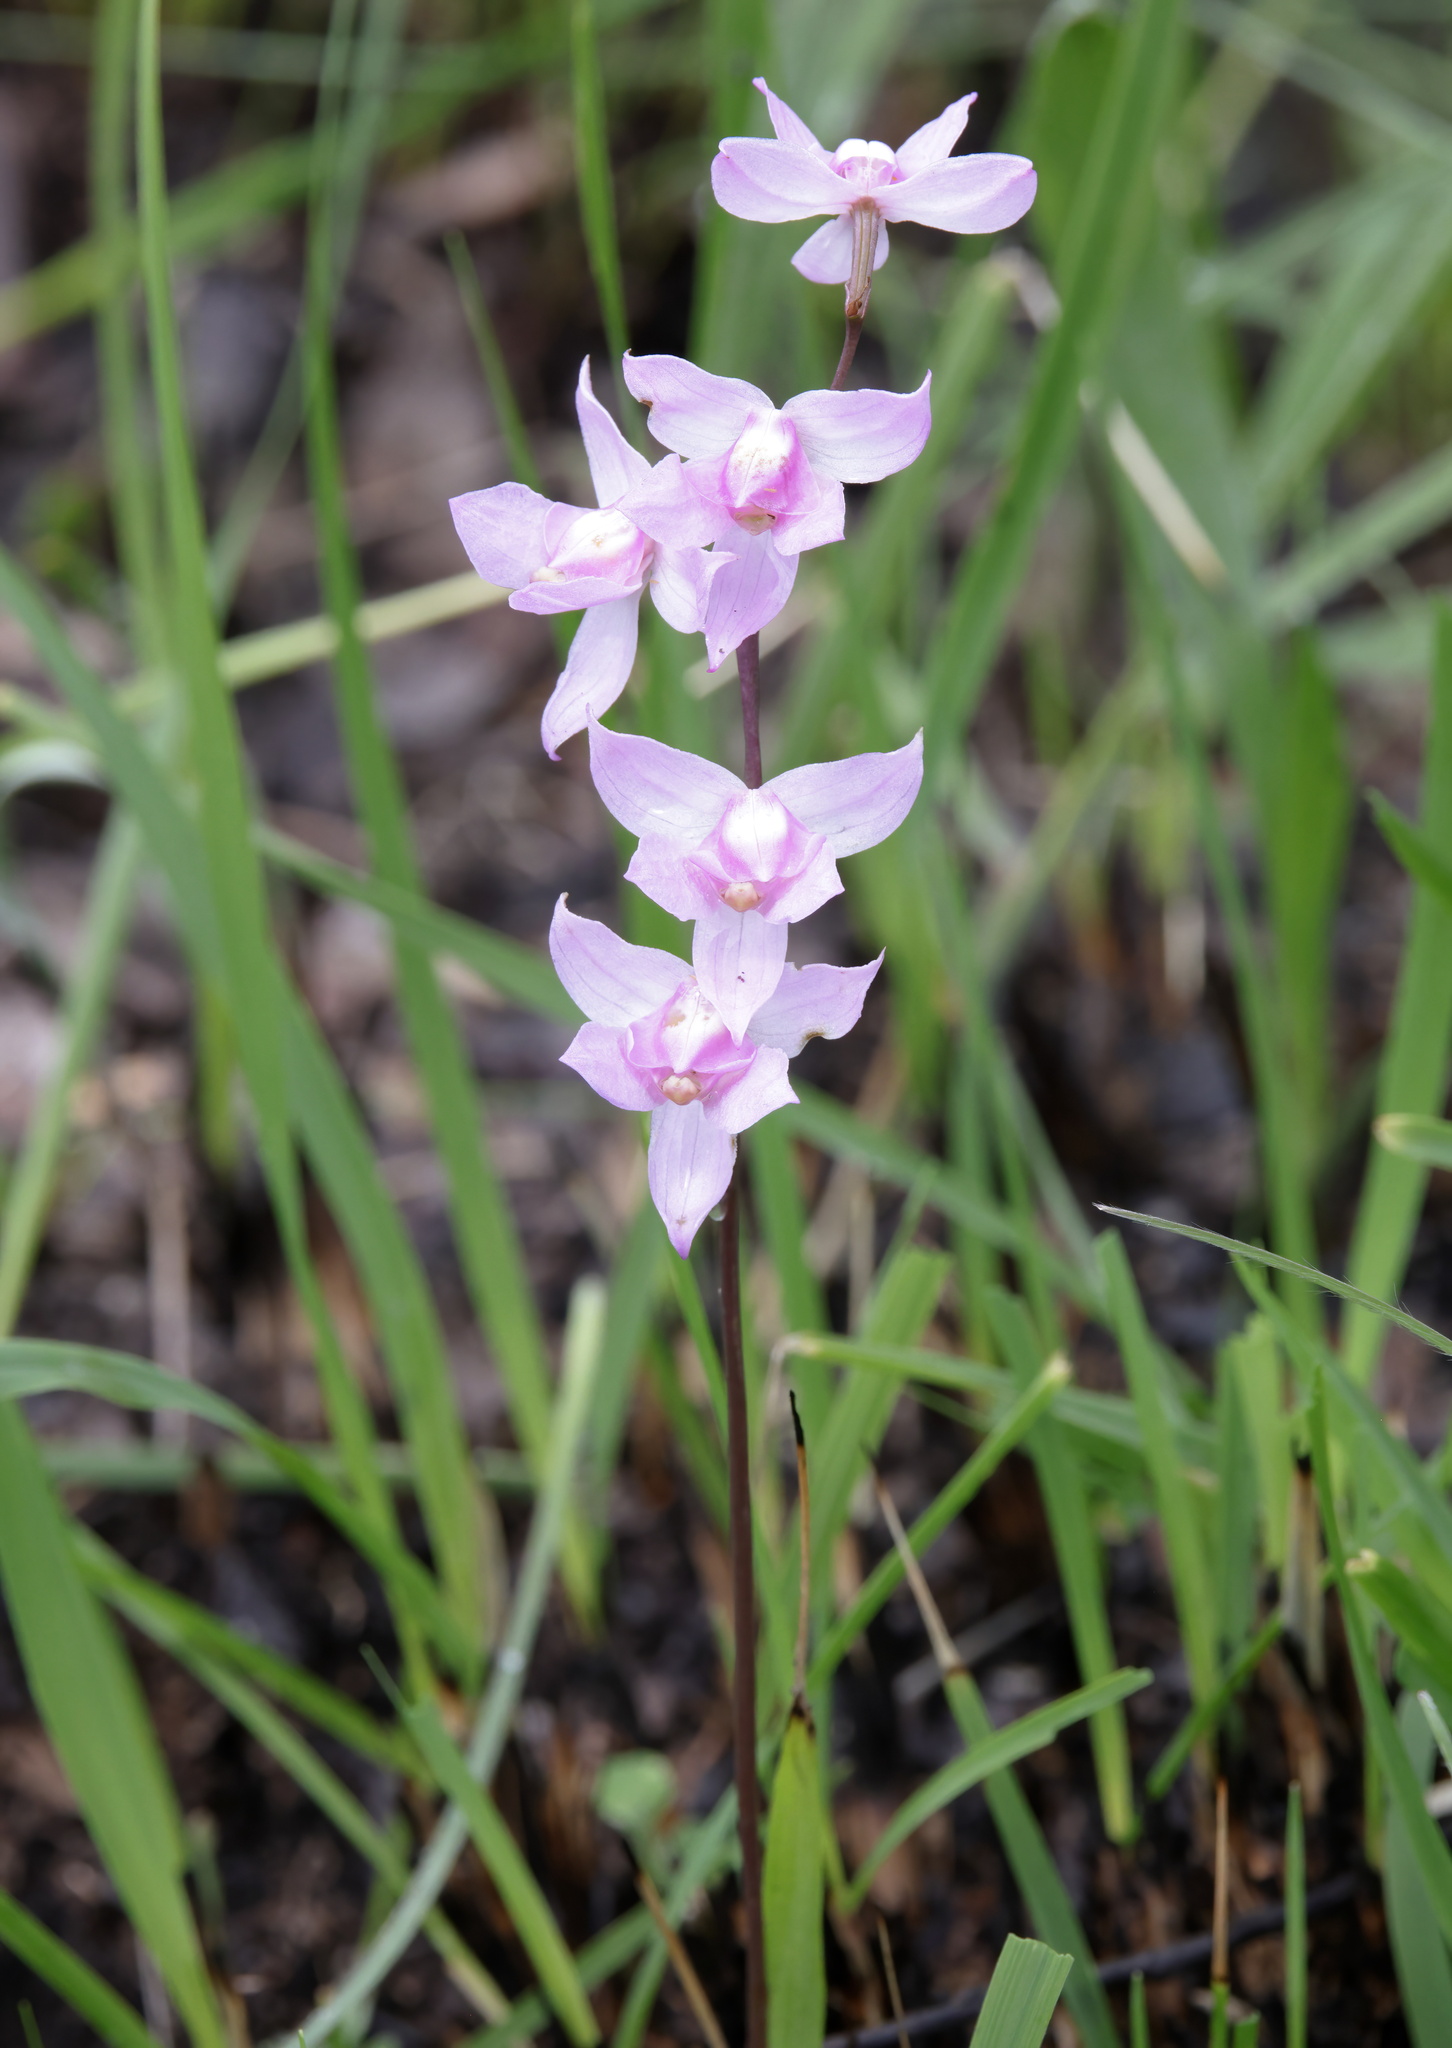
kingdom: Plantae
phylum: Tracheophyta
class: Liliopsida
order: Asparagales
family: Orchidaceae
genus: Calopogon
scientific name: Calopogon multiflorus
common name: Many-flowered grass-pink orchid
